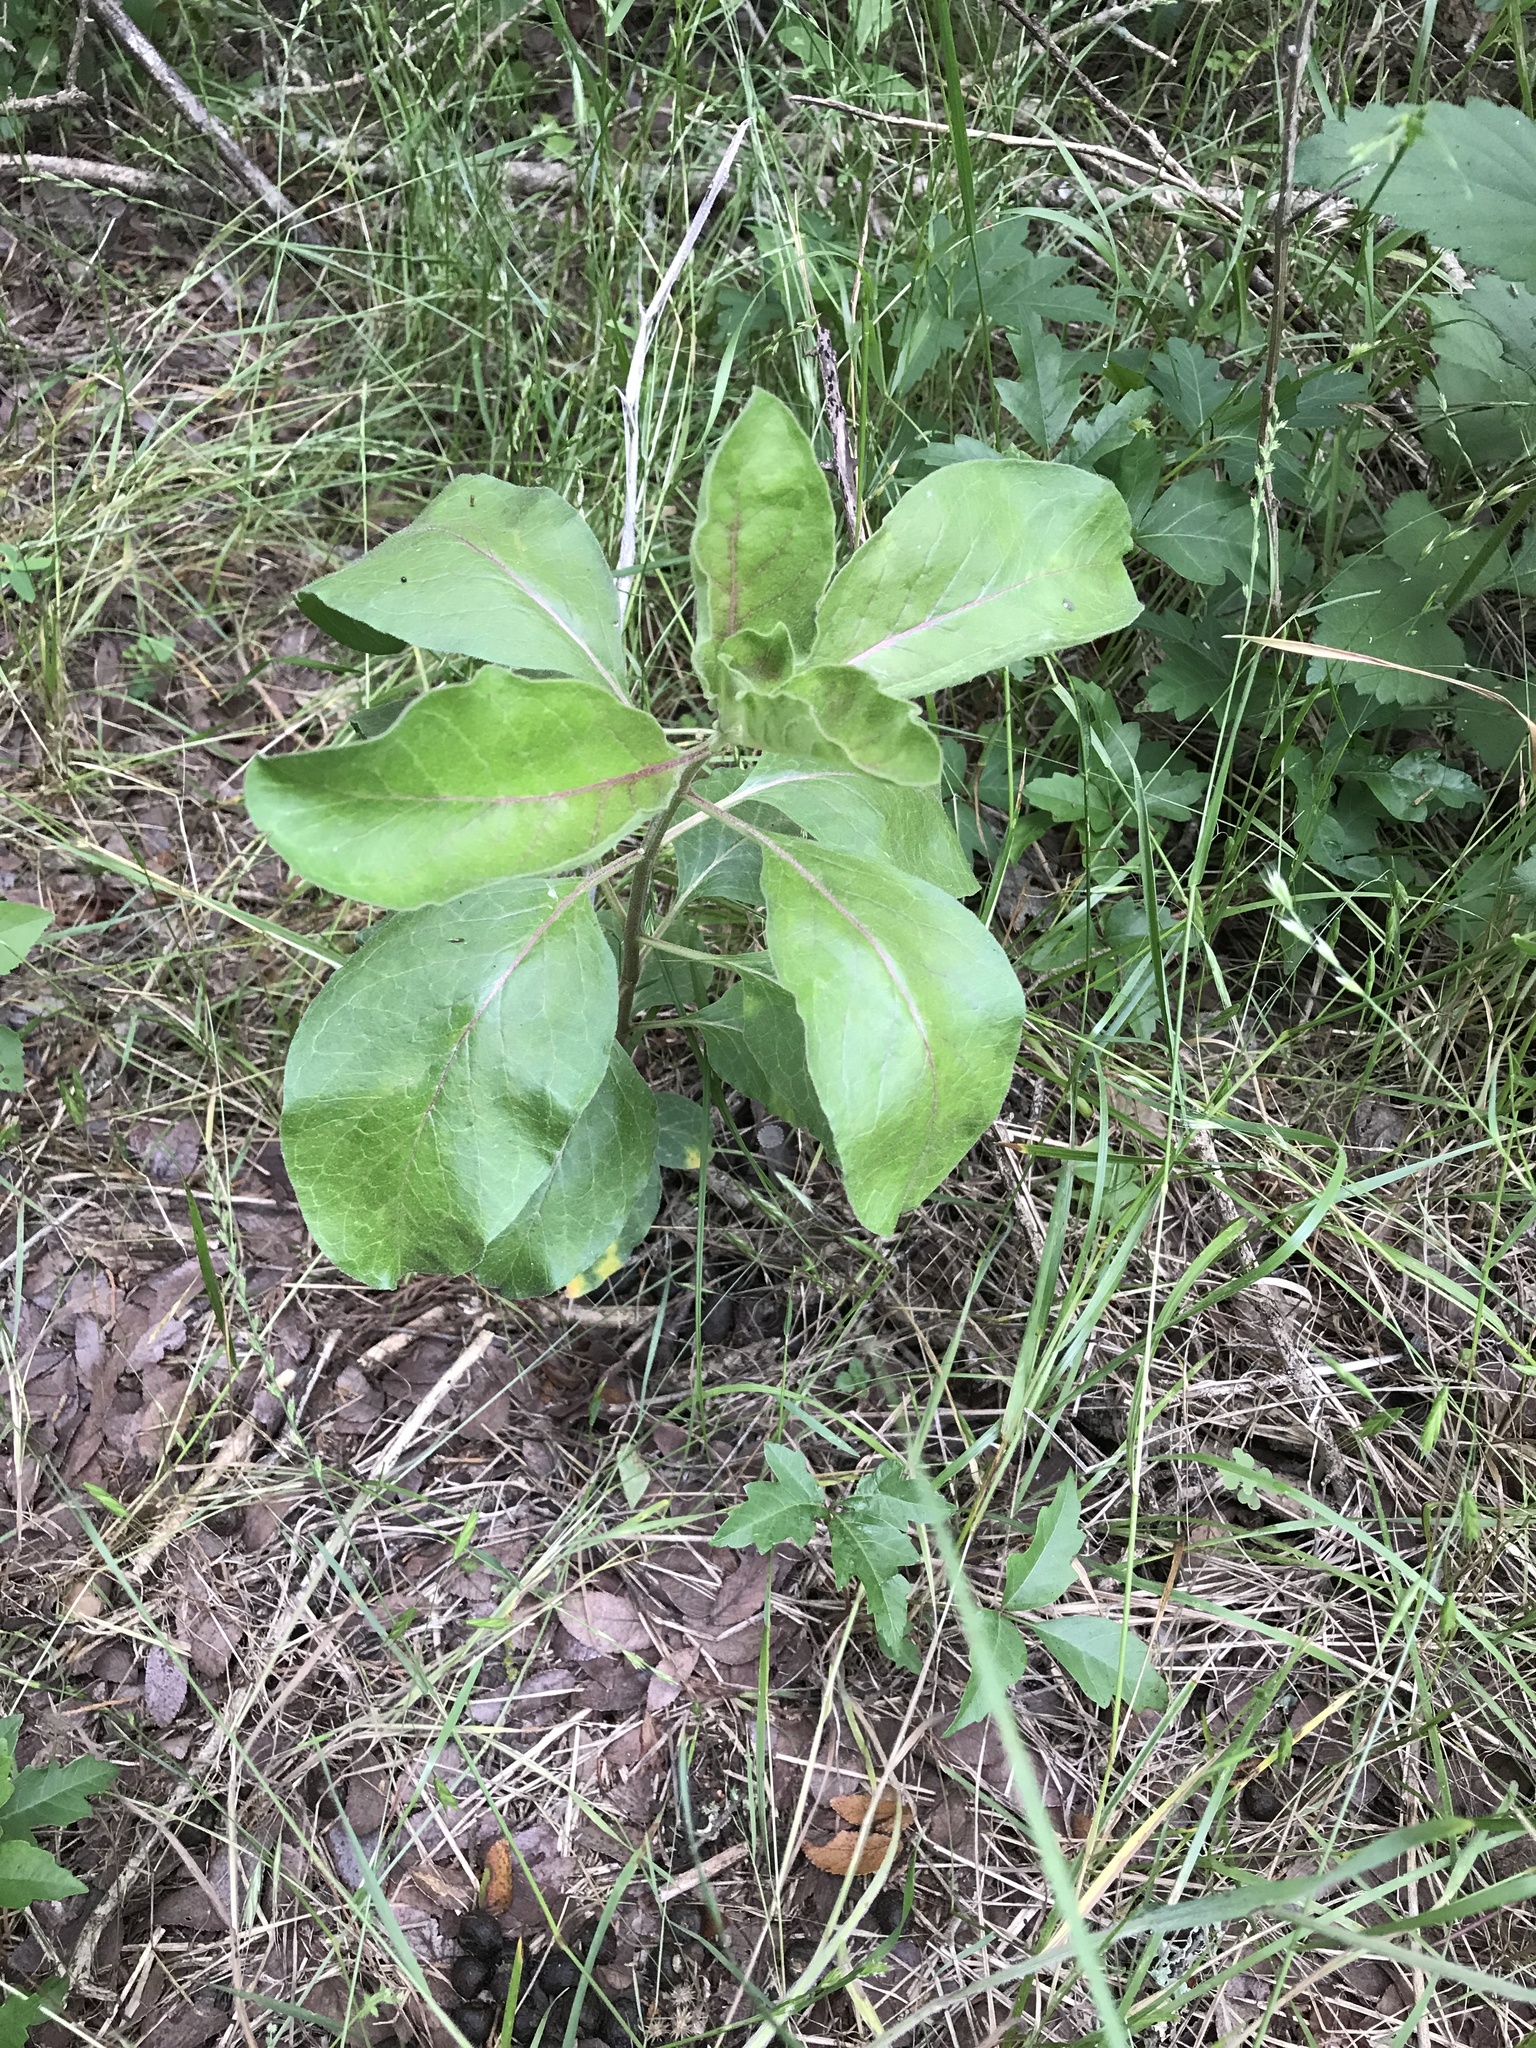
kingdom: Plantae
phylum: Tracheophyta
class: Magnoliopsida
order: Gentianales
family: Apocynaceae
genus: Asclepias
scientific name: Asclepias oenotheroides
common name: Zizotes milkweed
